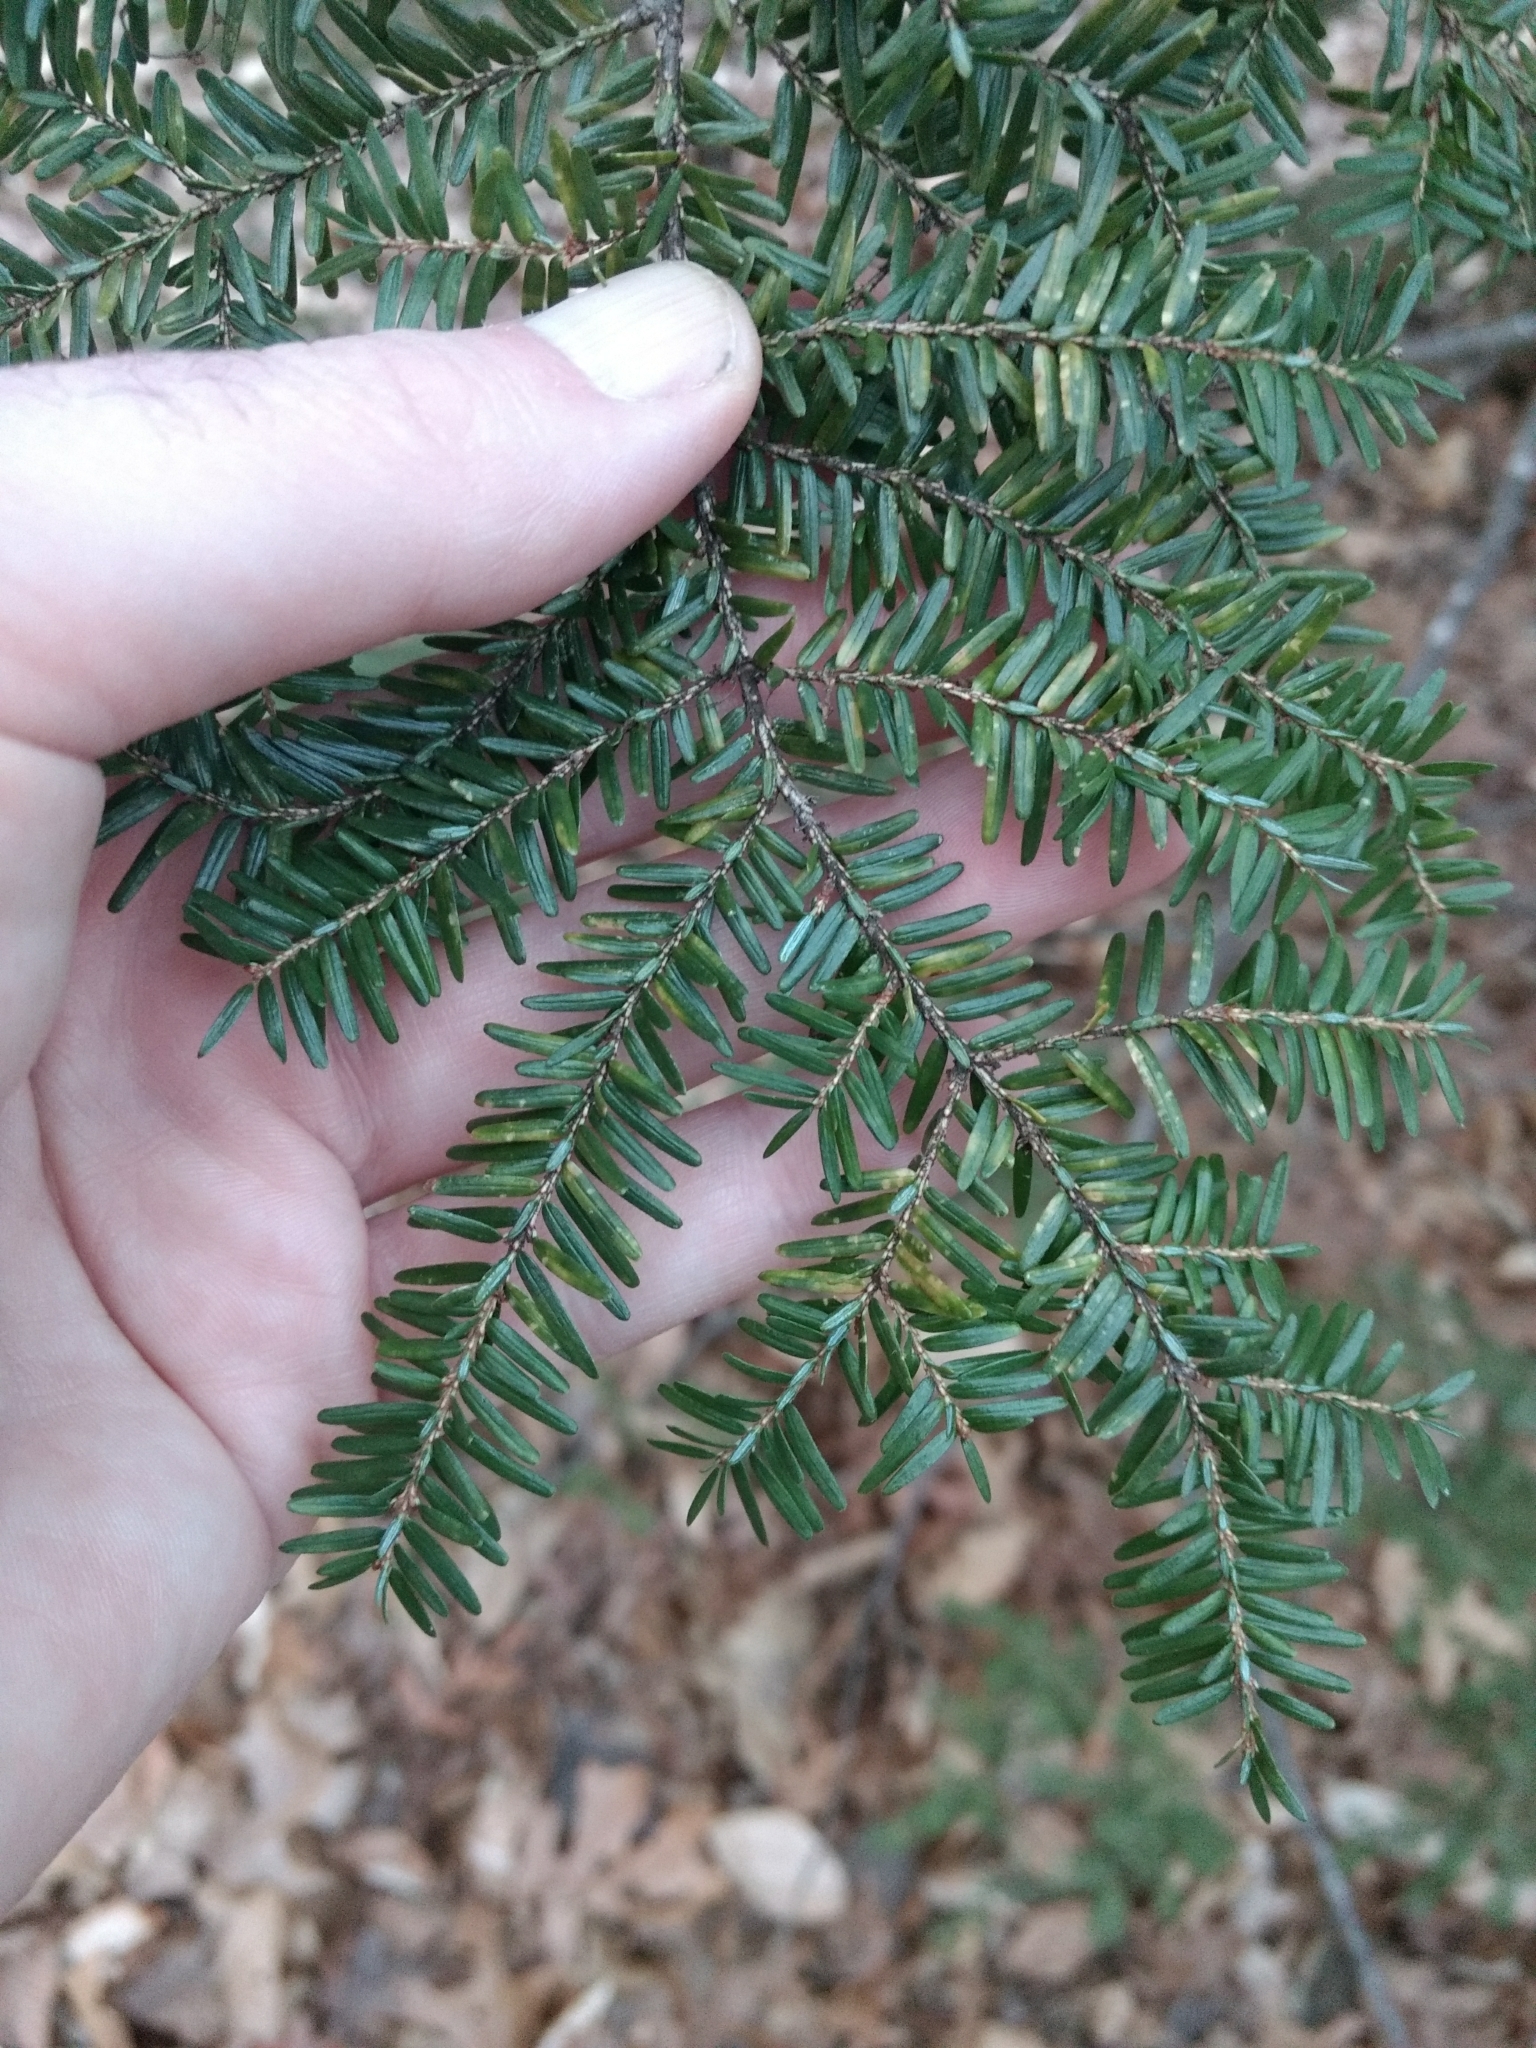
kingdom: Plantae
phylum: Tracheophyta
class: Pinopsida
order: Pinales
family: Pinaceae
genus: Tsuga
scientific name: Tsuga canadensis
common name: Eastern hemlock
